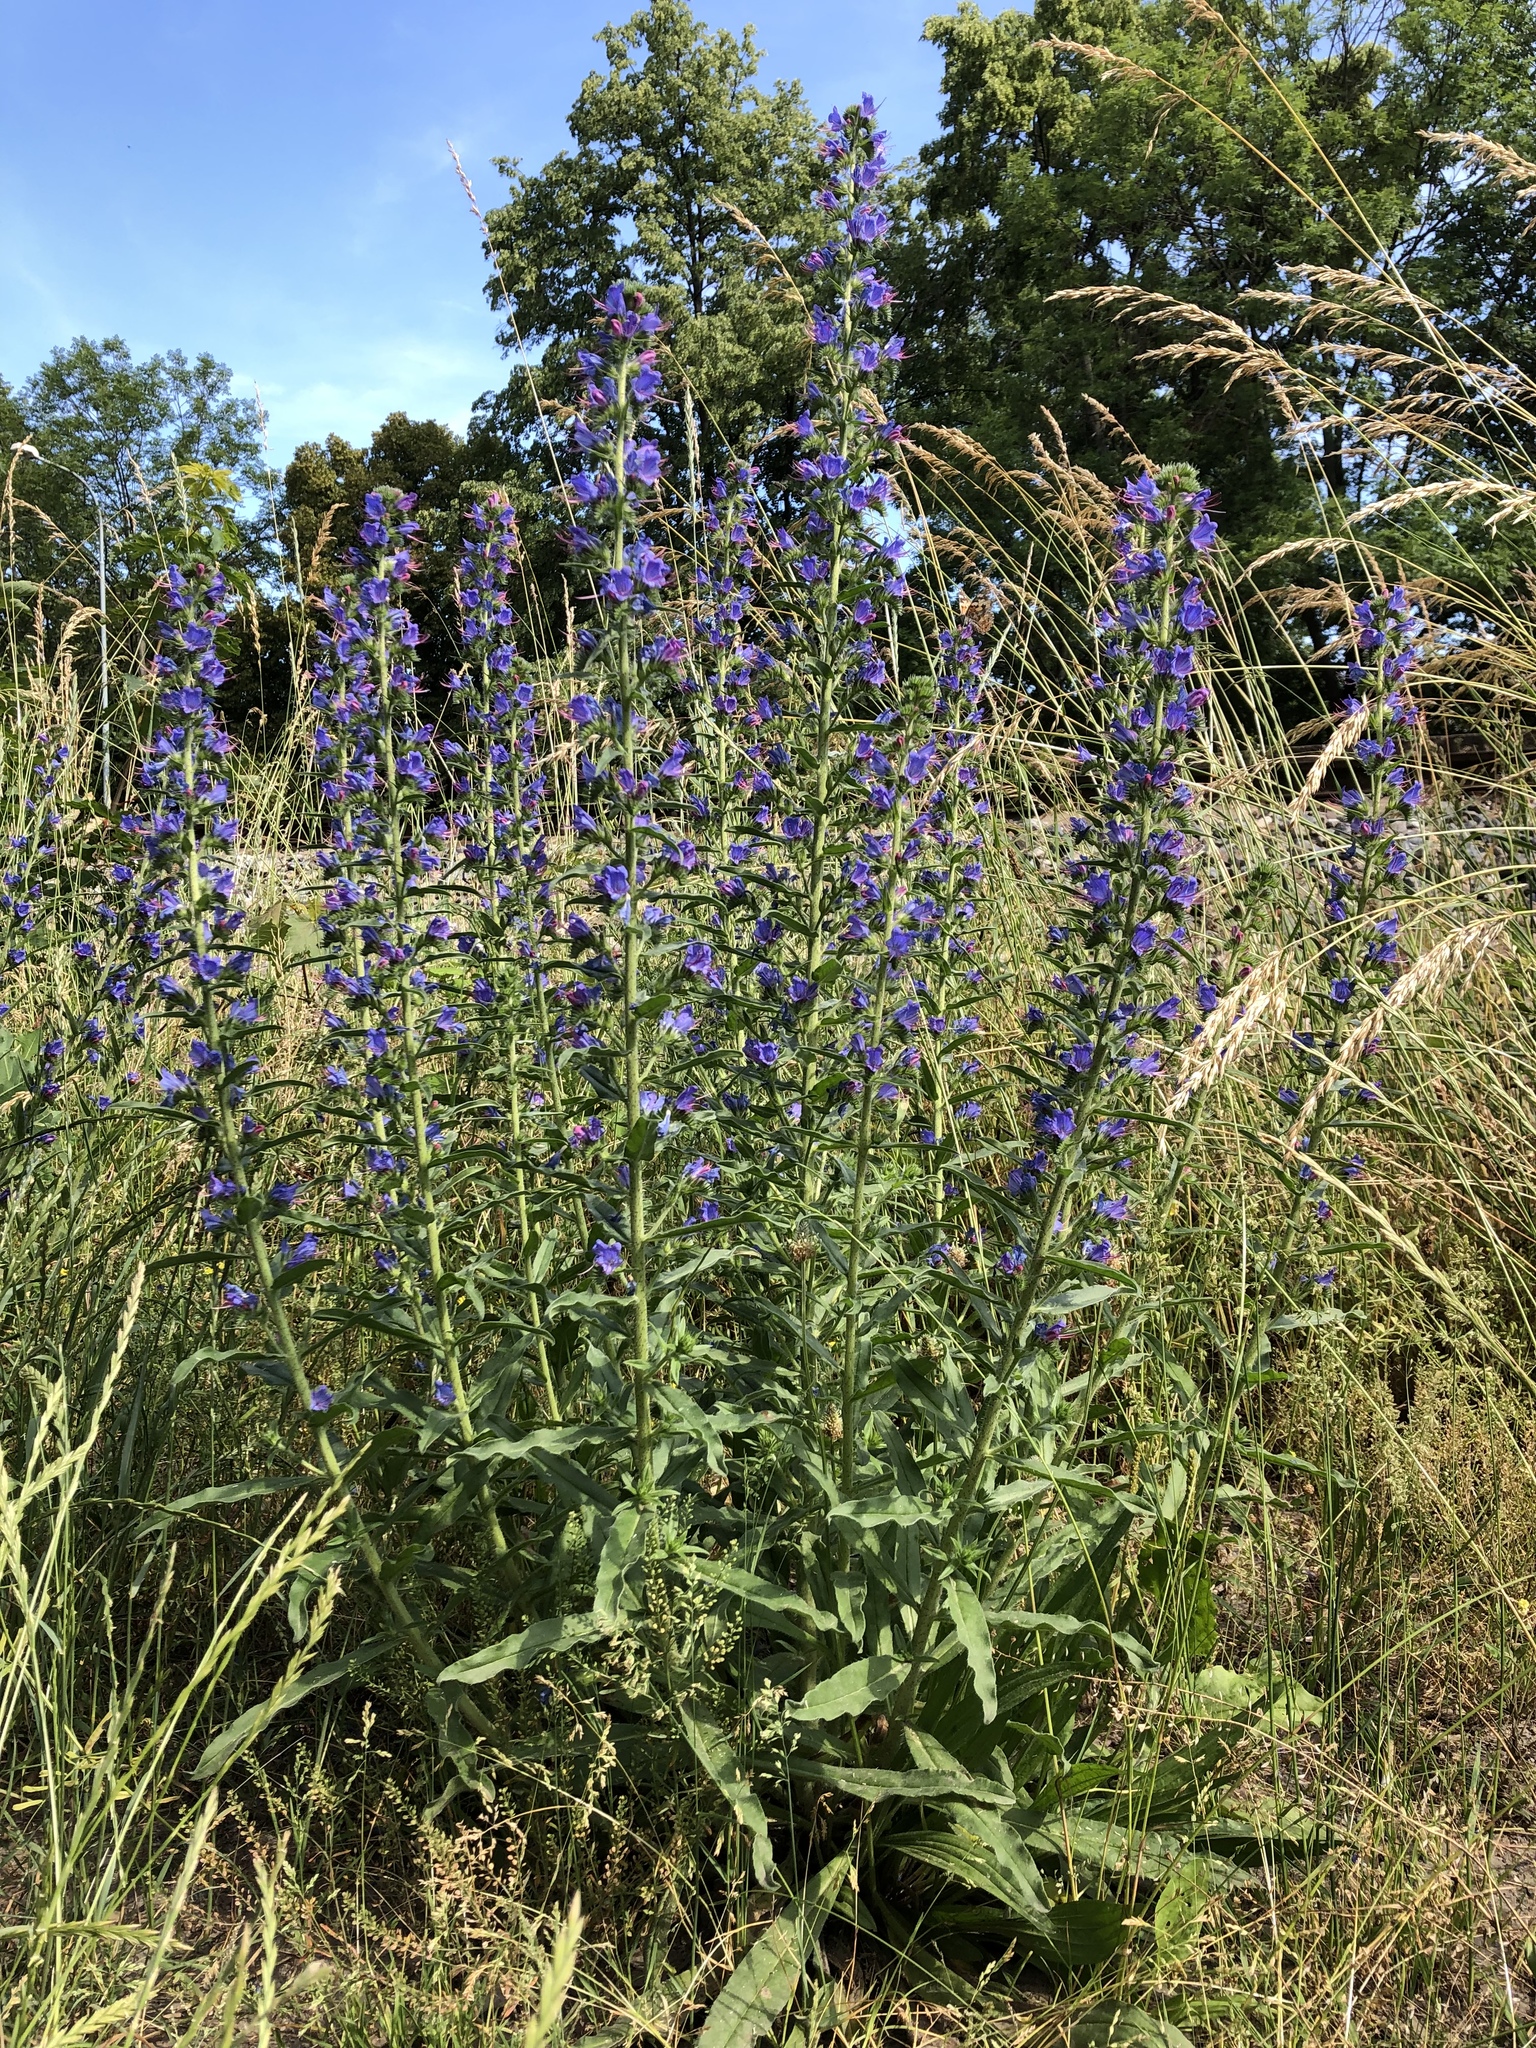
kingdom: Plantae
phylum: Tracheophyta
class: Magnoliopsida
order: Boraginales
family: Boraginaceae
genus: Echium
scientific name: Echium vulgare
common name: Common viper's bugloss
